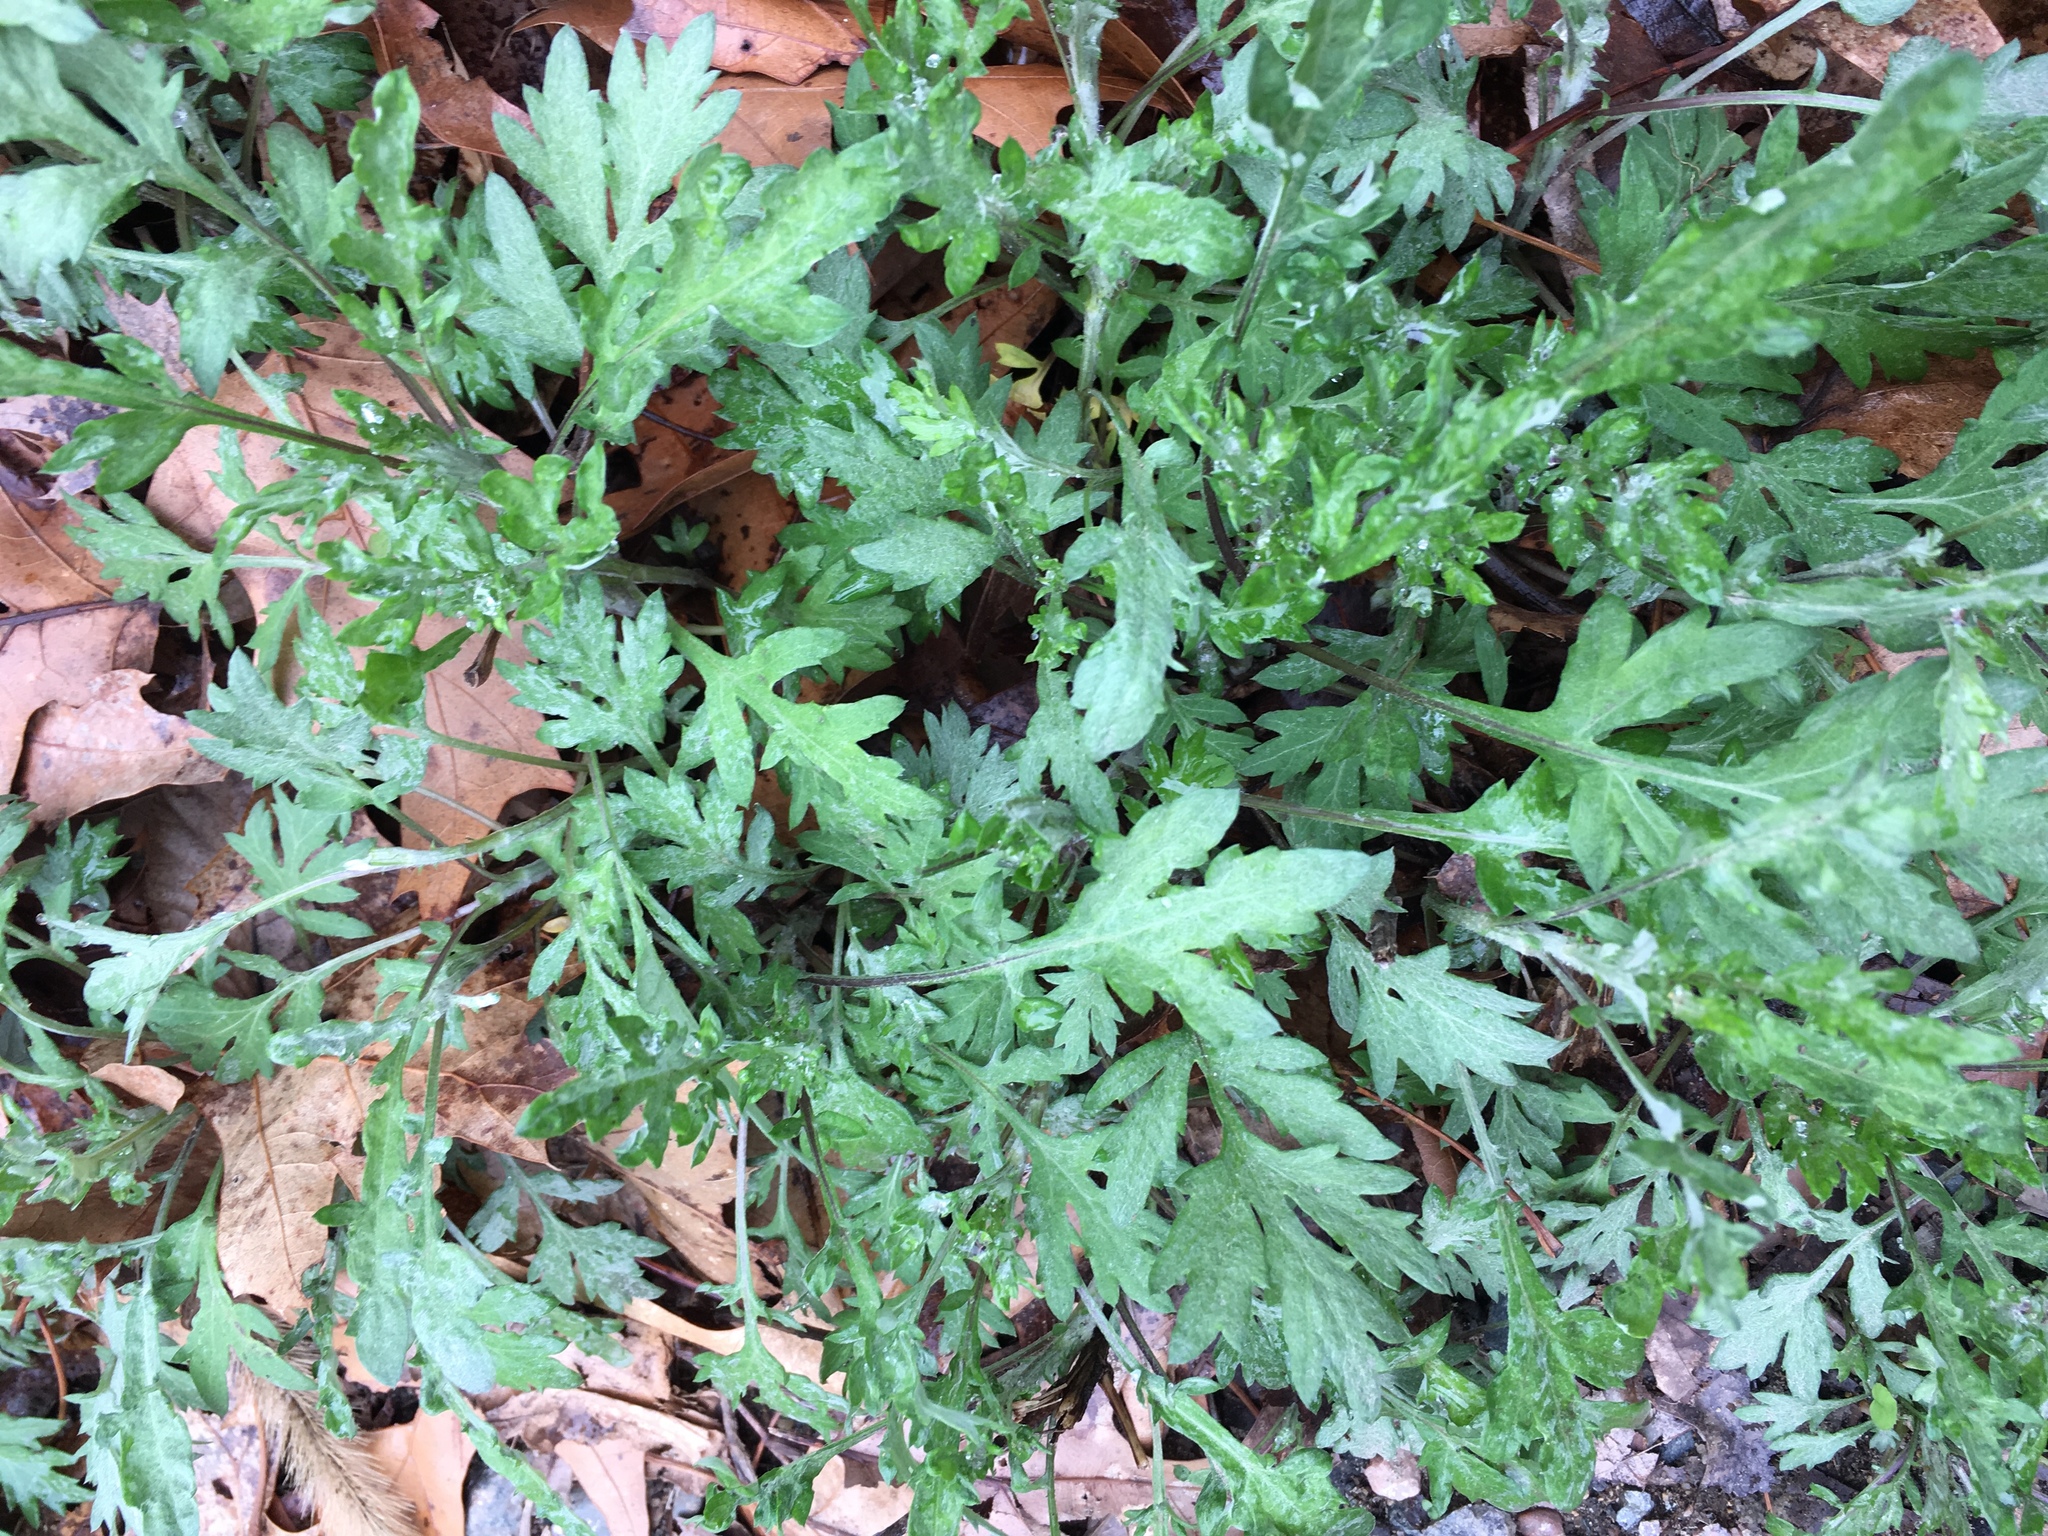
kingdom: Plantae
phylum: Tracheophyta
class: Magnoliopsida
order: Asterales
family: Asteraceae
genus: Artemisia
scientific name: Artemisia vulgaris
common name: Mugwort
